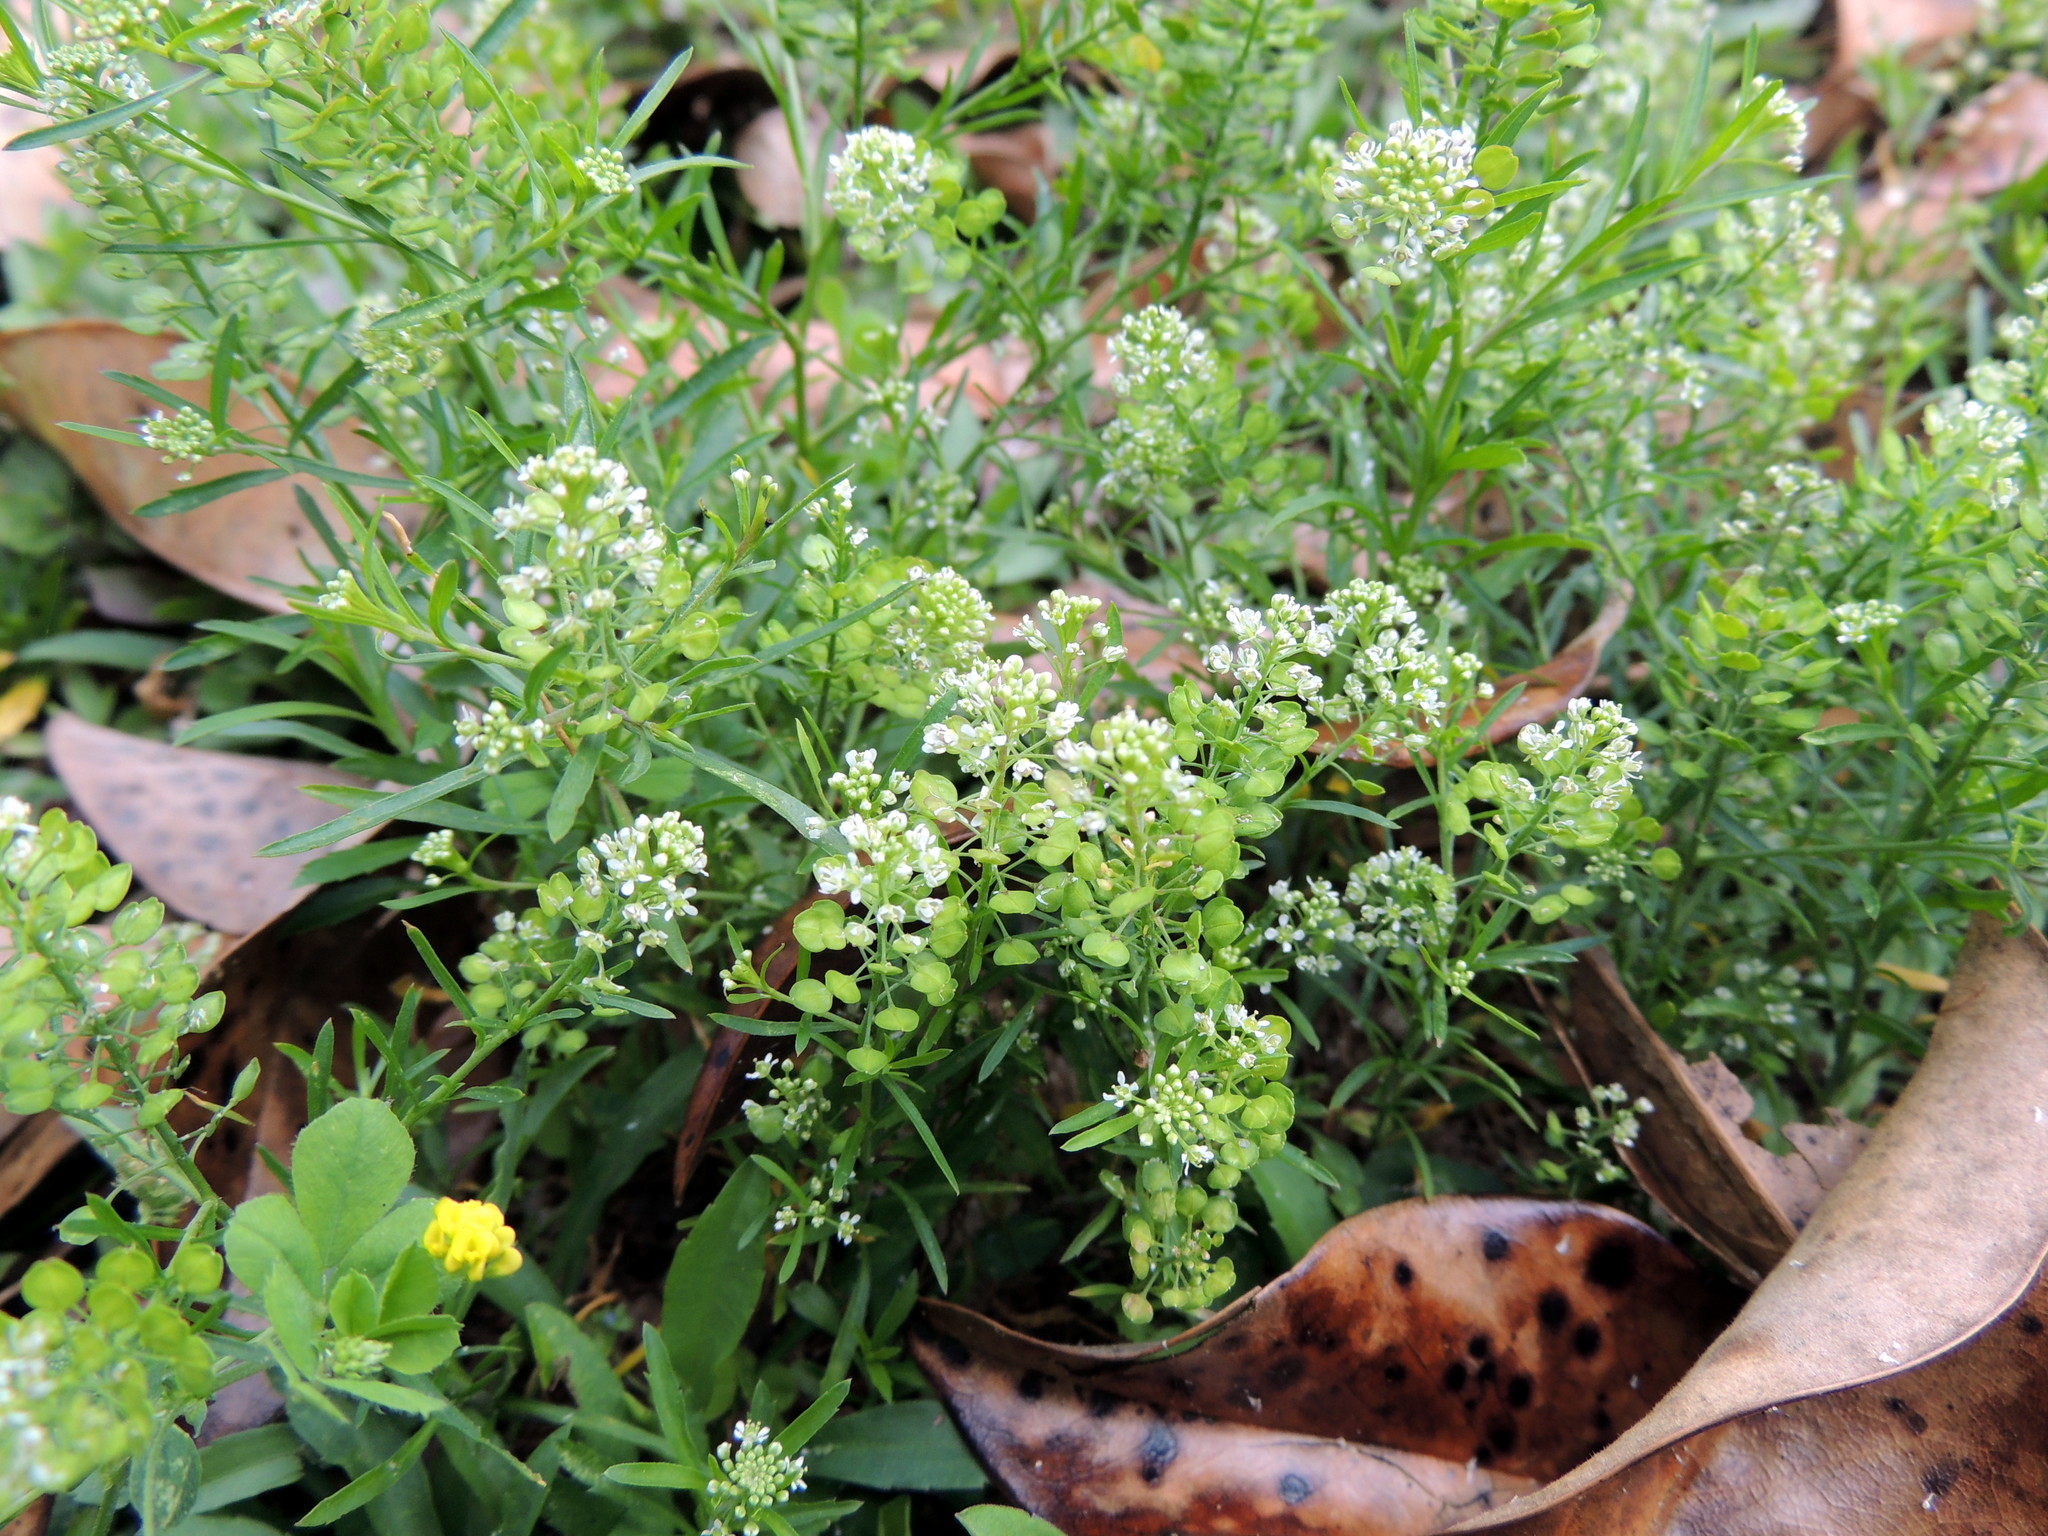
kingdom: Plantae
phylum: Tracheophyta
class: Magnoliopsida
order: Brassicales
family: Brassicaceae
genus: Lepidium
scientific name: Lepidium virginicum
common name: Least pepperwort
